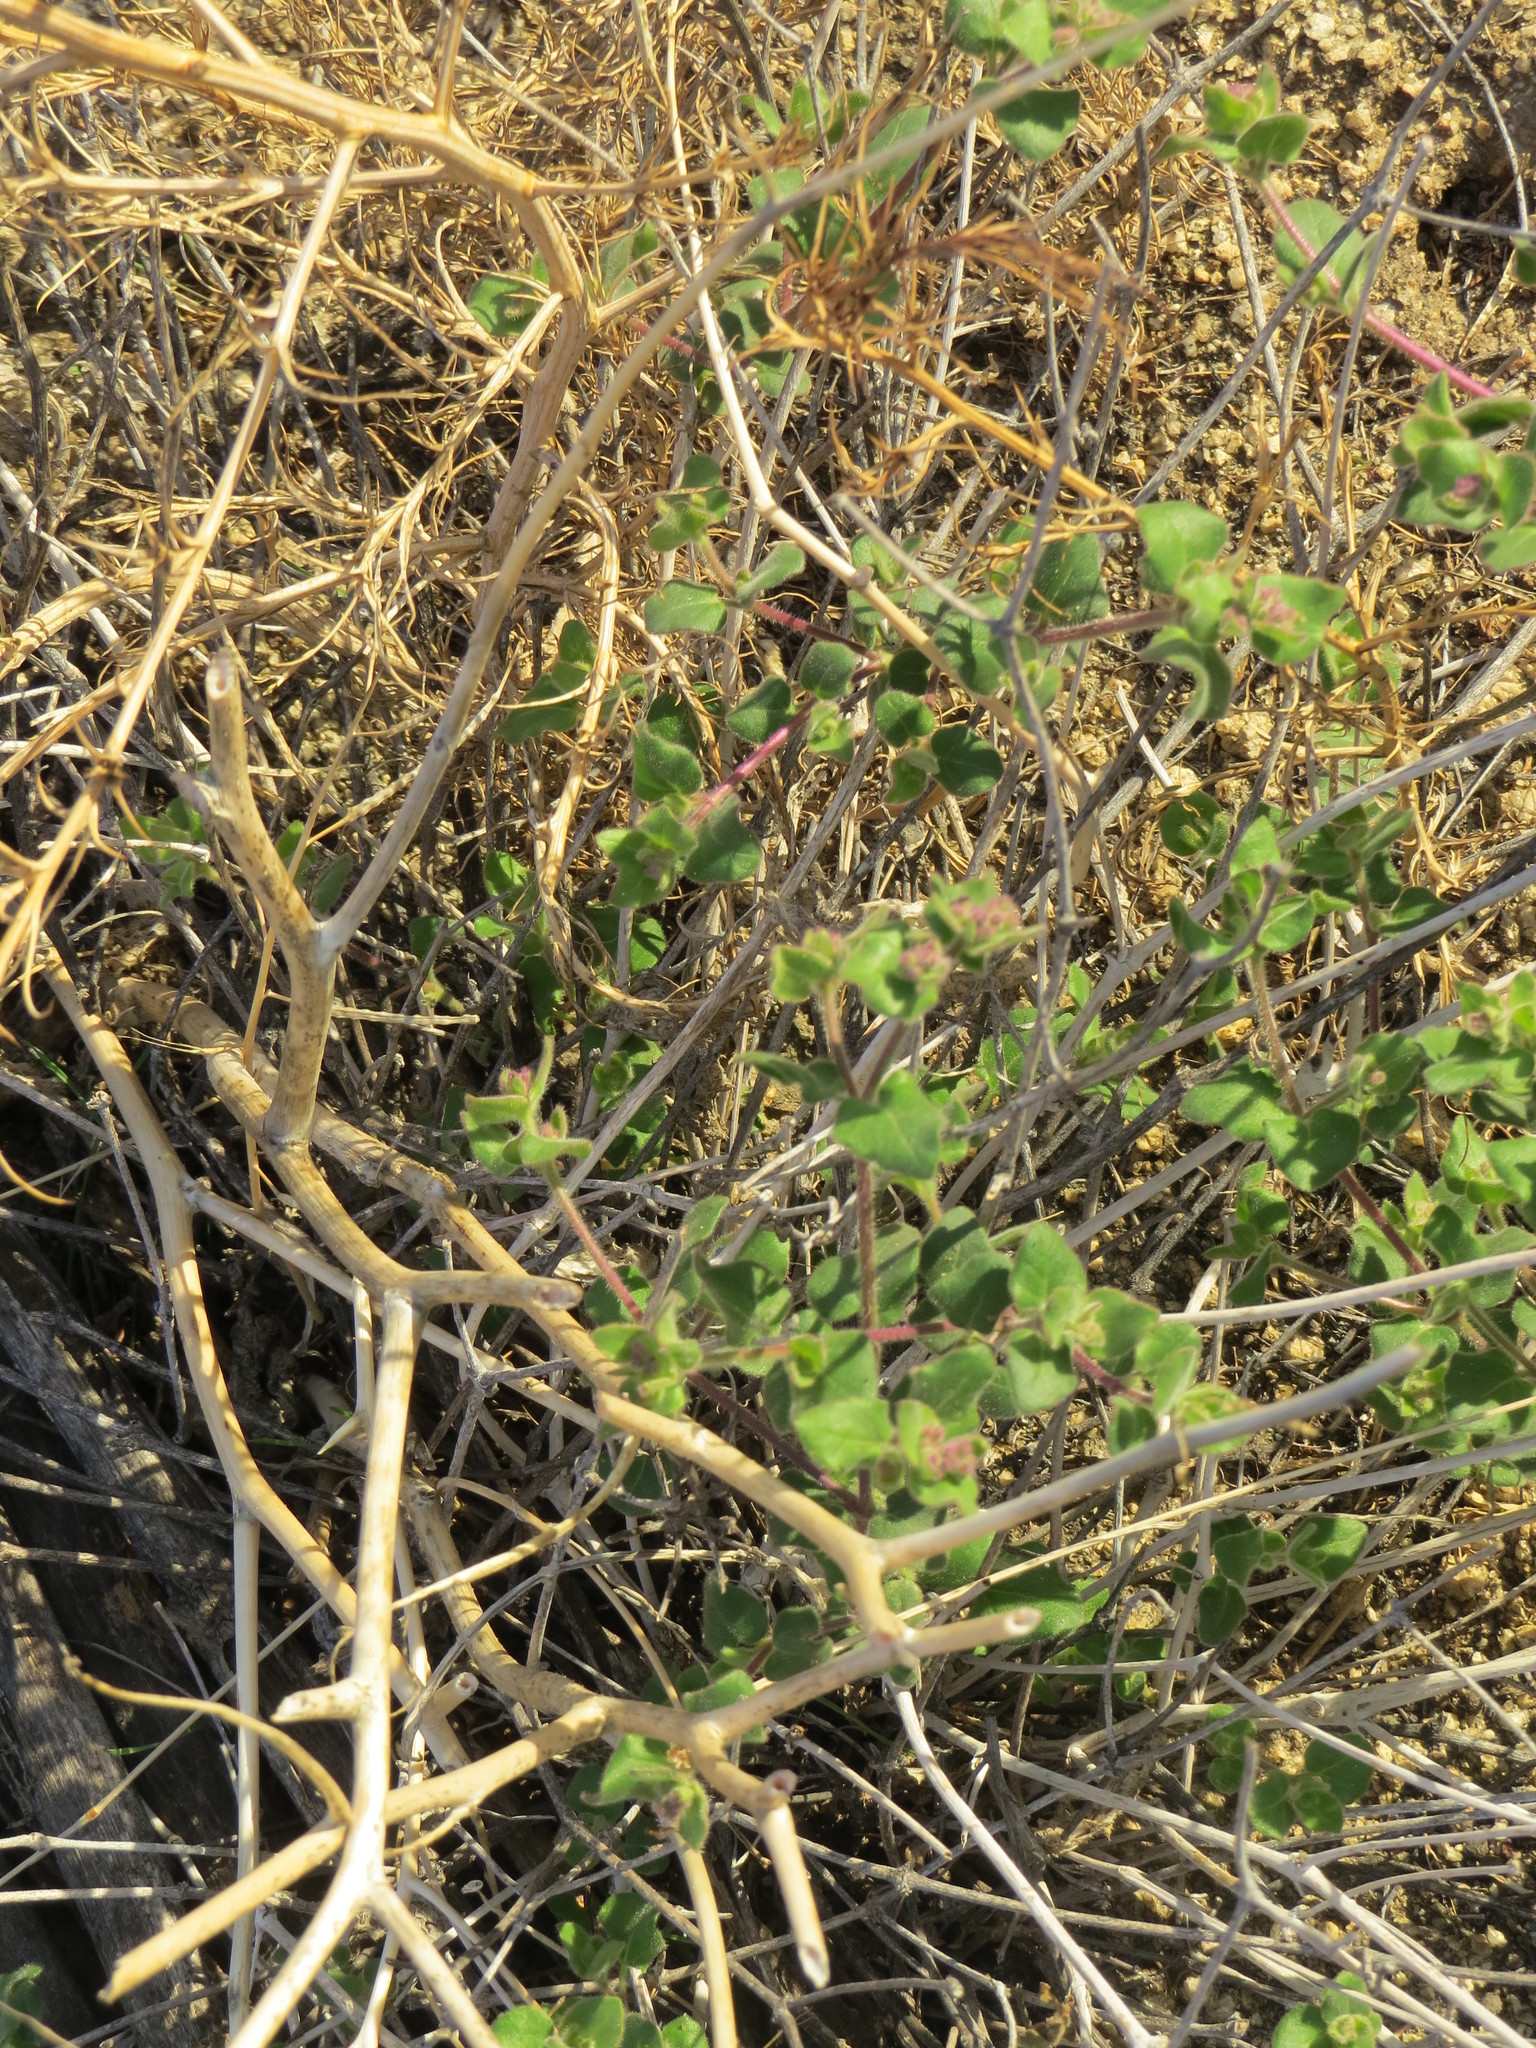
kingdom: Plantae
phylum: Tracheophyta
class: Magnoliopsida
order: Caryophyllales
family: Nyctaginaceae
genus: Mirabilis
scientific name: Mirabilis laevis
